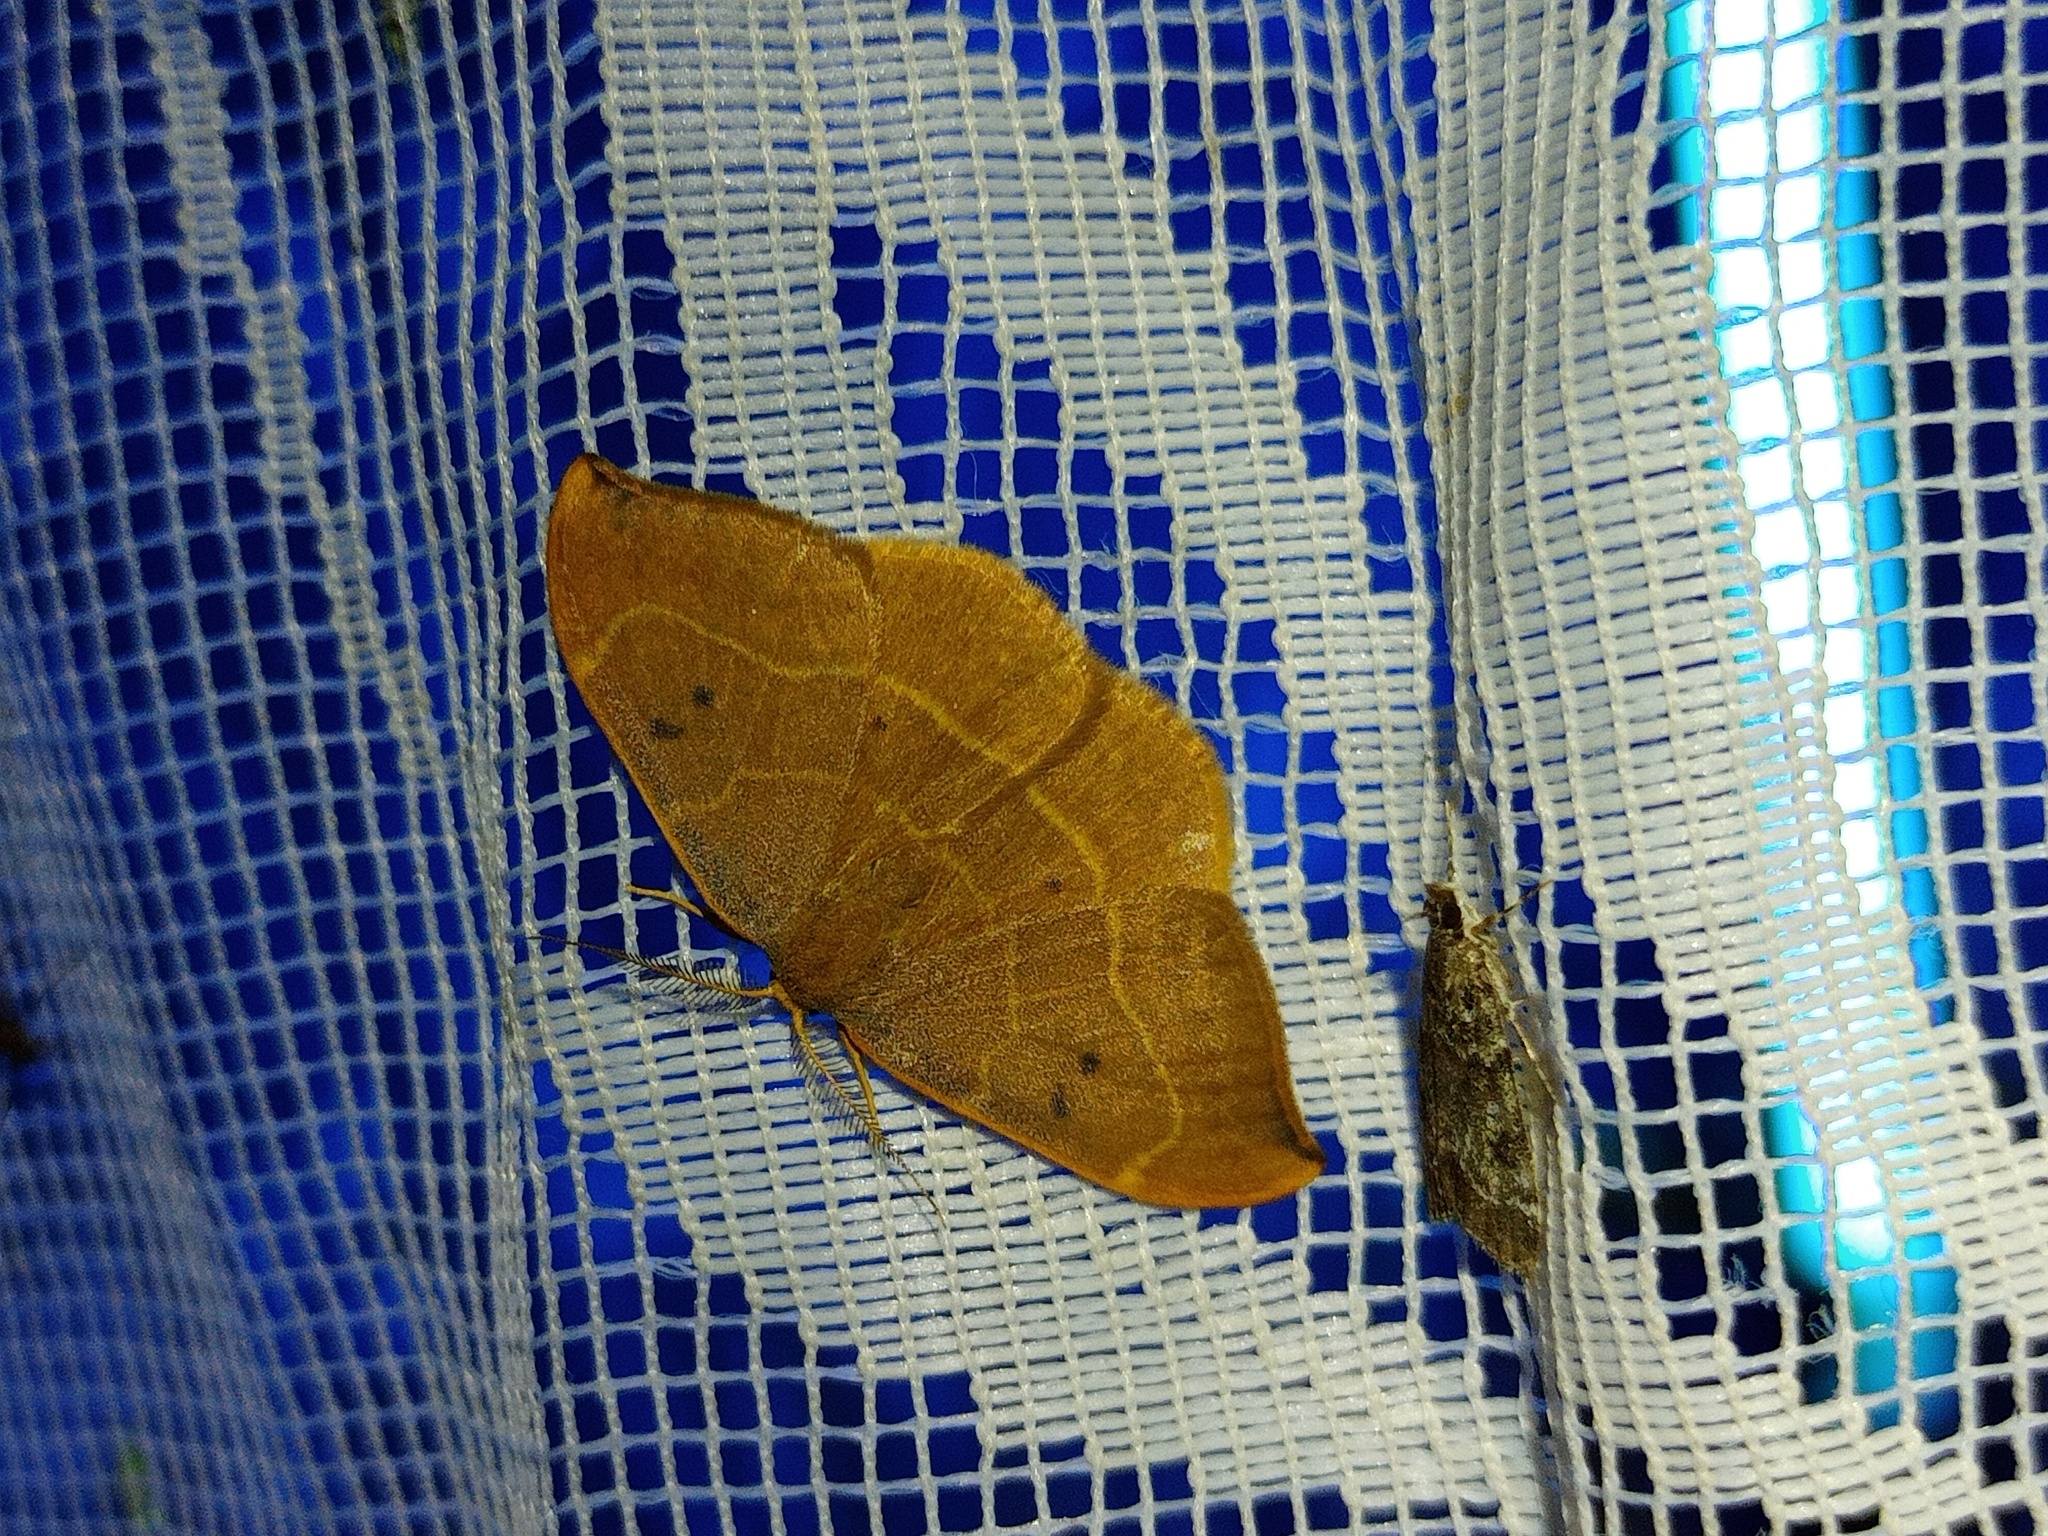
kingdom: Animalia
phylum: Arthropoda
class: Insecta
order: Lepidoptera
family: Drepanidae
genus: Watsonalla
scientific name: Watsonalla binaria
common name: Oak hook-tip
